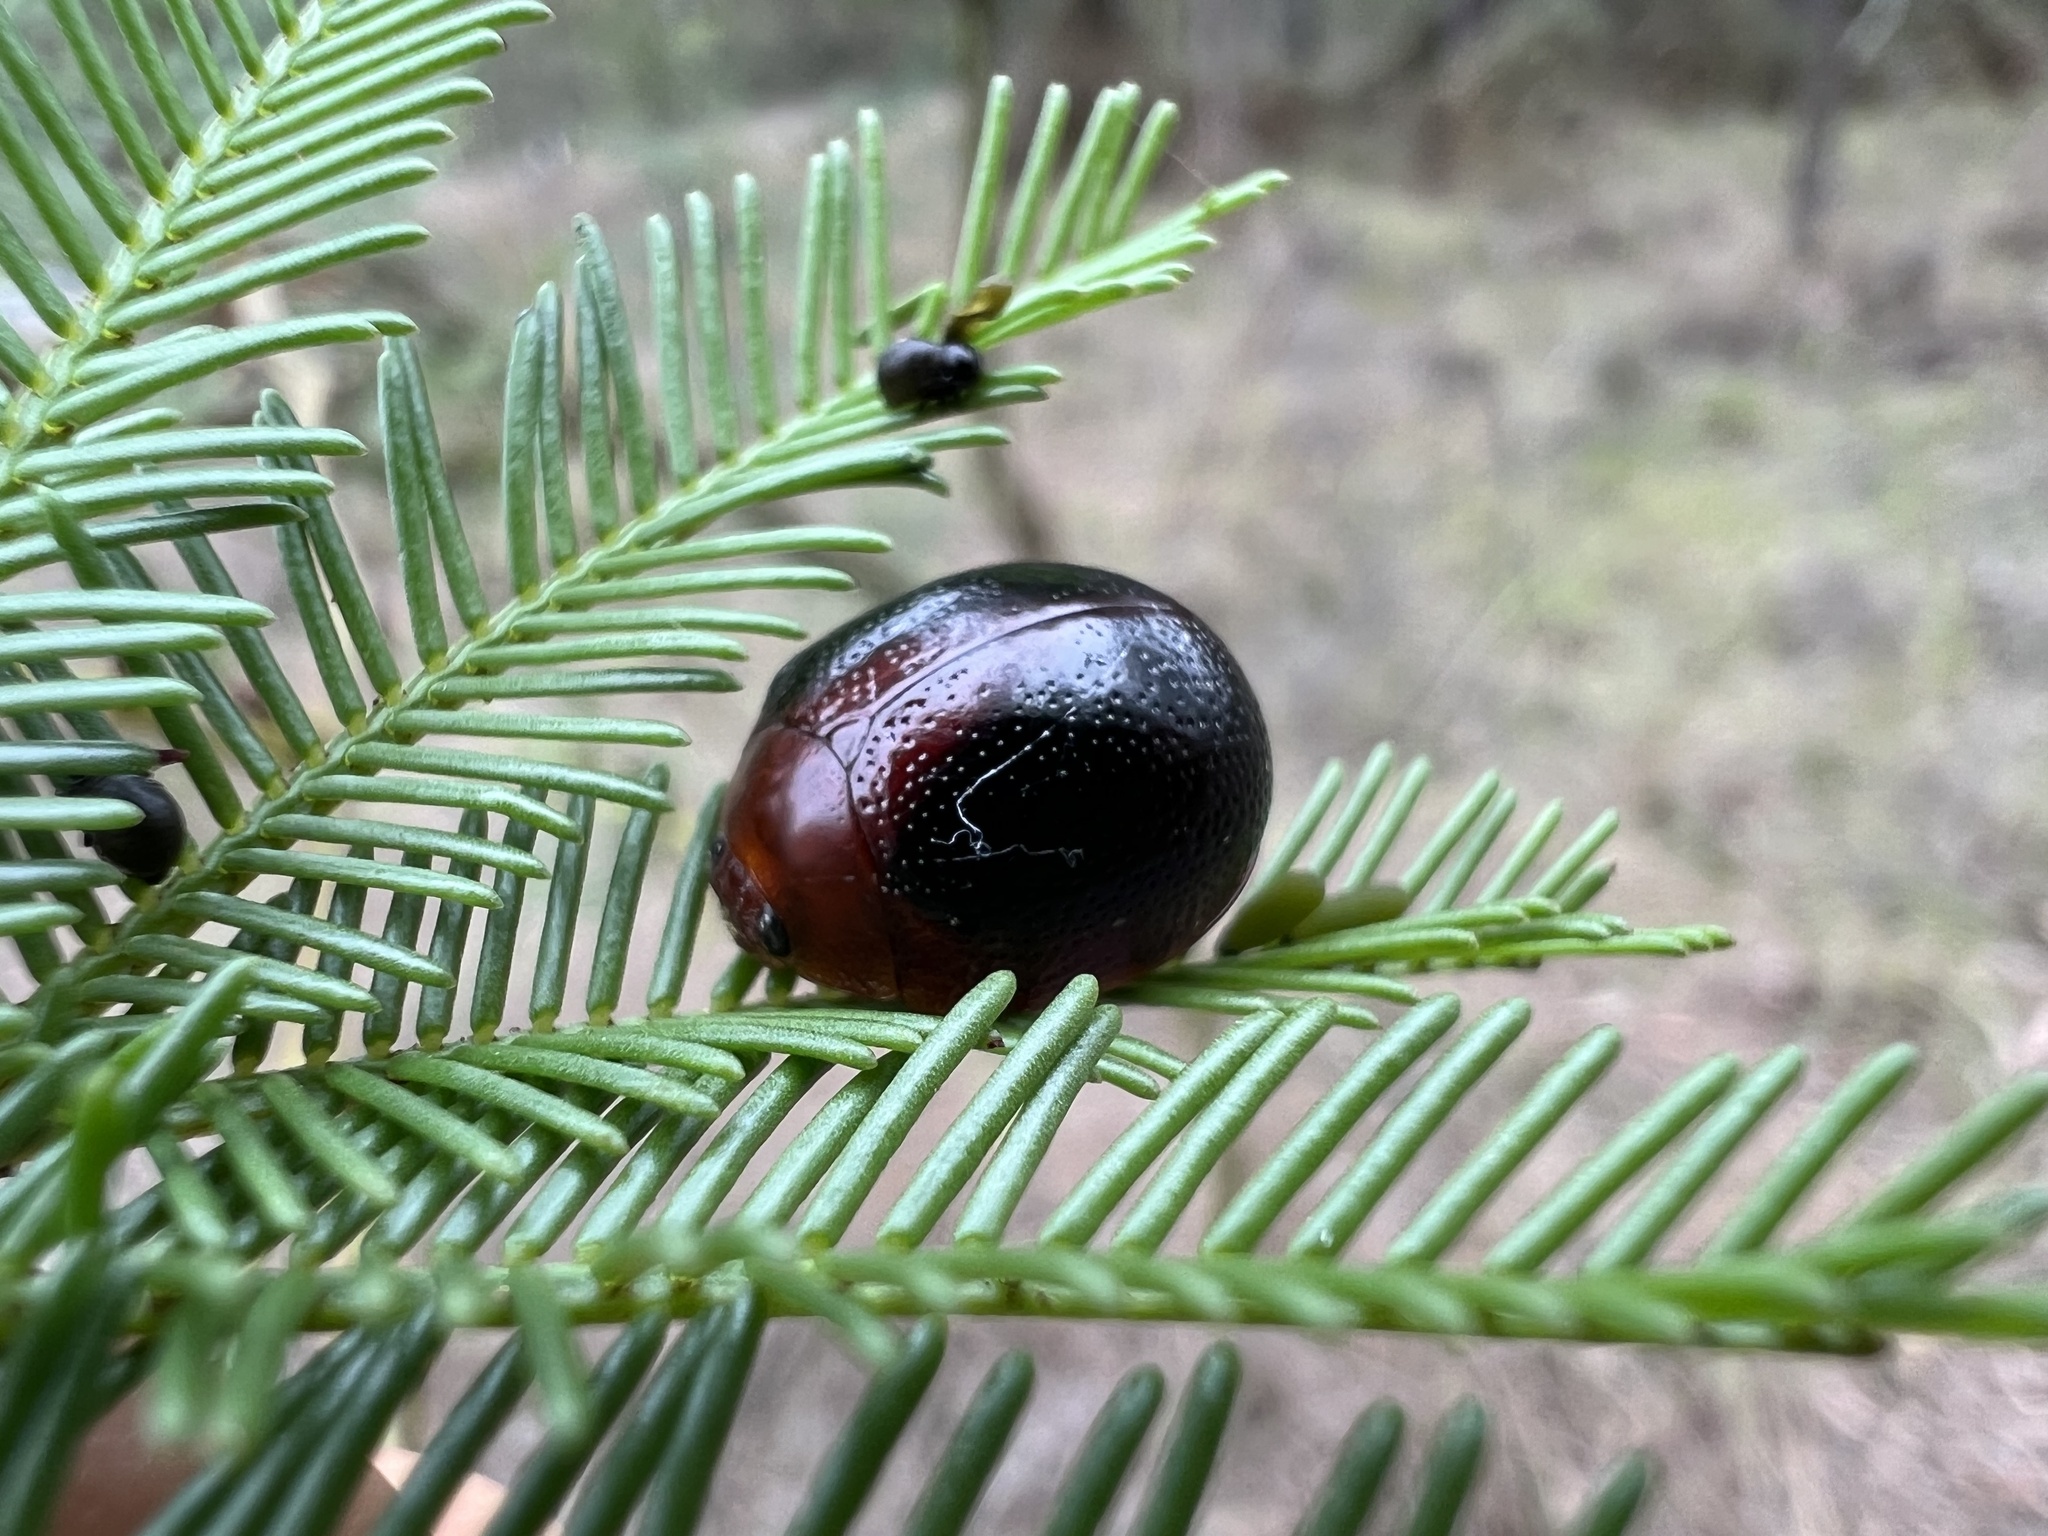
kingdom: Animalia
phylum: Arthropoda
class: Insecta
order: Coleoptera
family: Chrysomelidae
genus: Dicranosterna
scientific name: Dicranosterna
